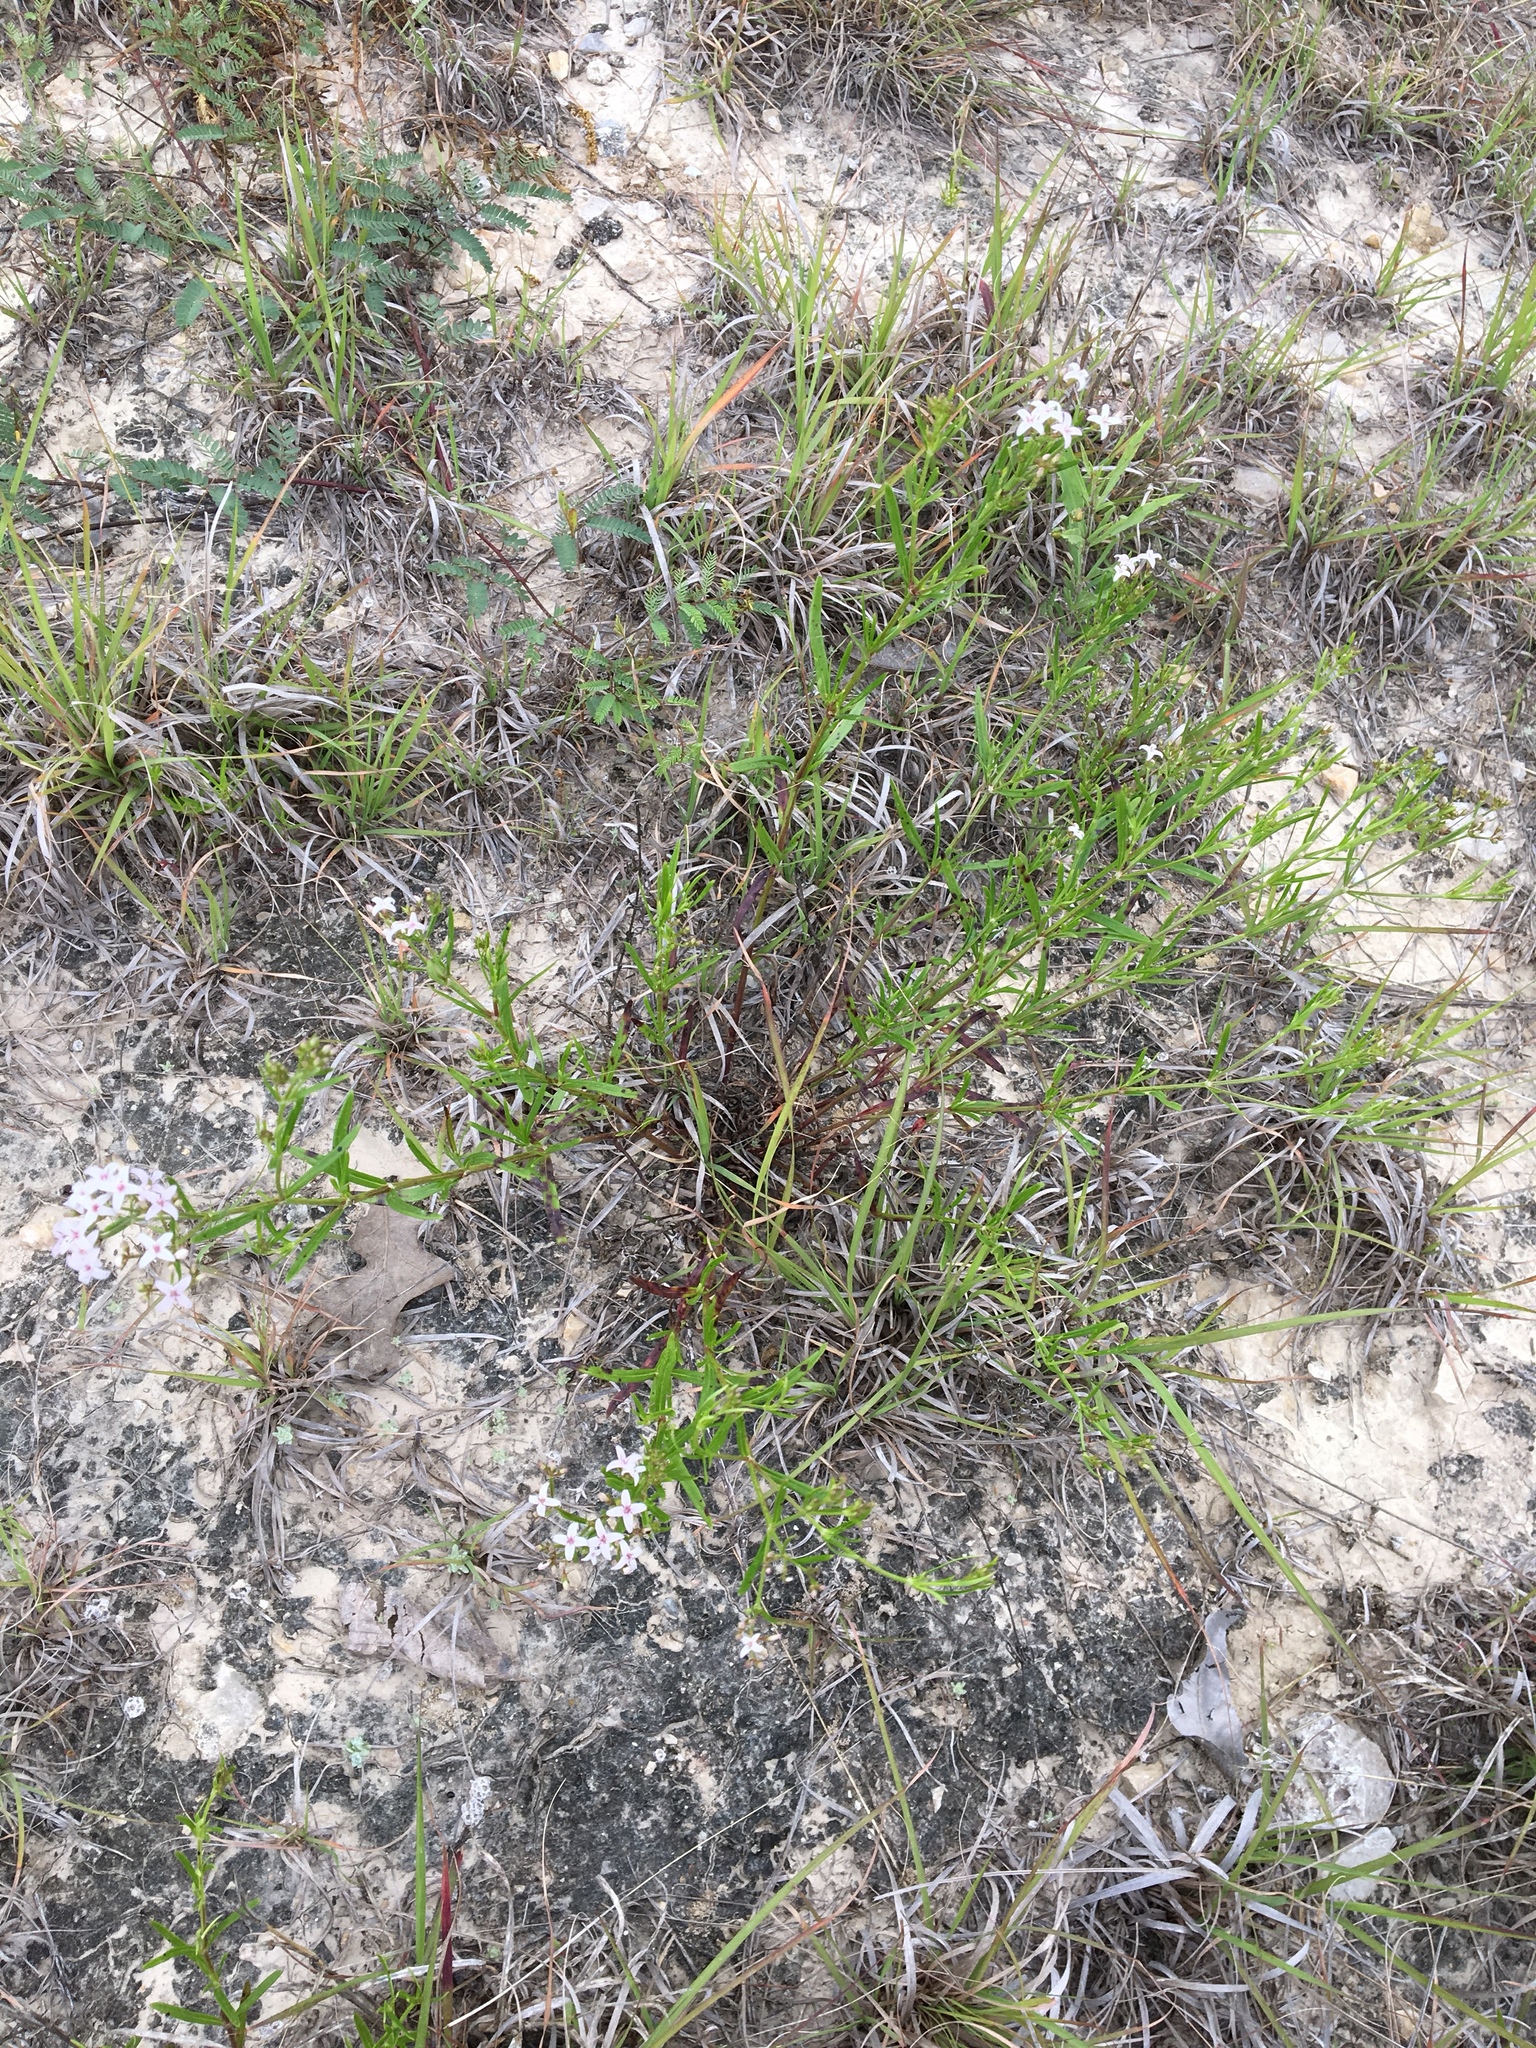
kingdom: Plantae
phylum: Tracheophyta
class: Magnoliopsida
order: Gentianales
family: Rubiaceae
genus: Stenaria
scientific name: Stenaria nigricans
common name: Diamondflowers
